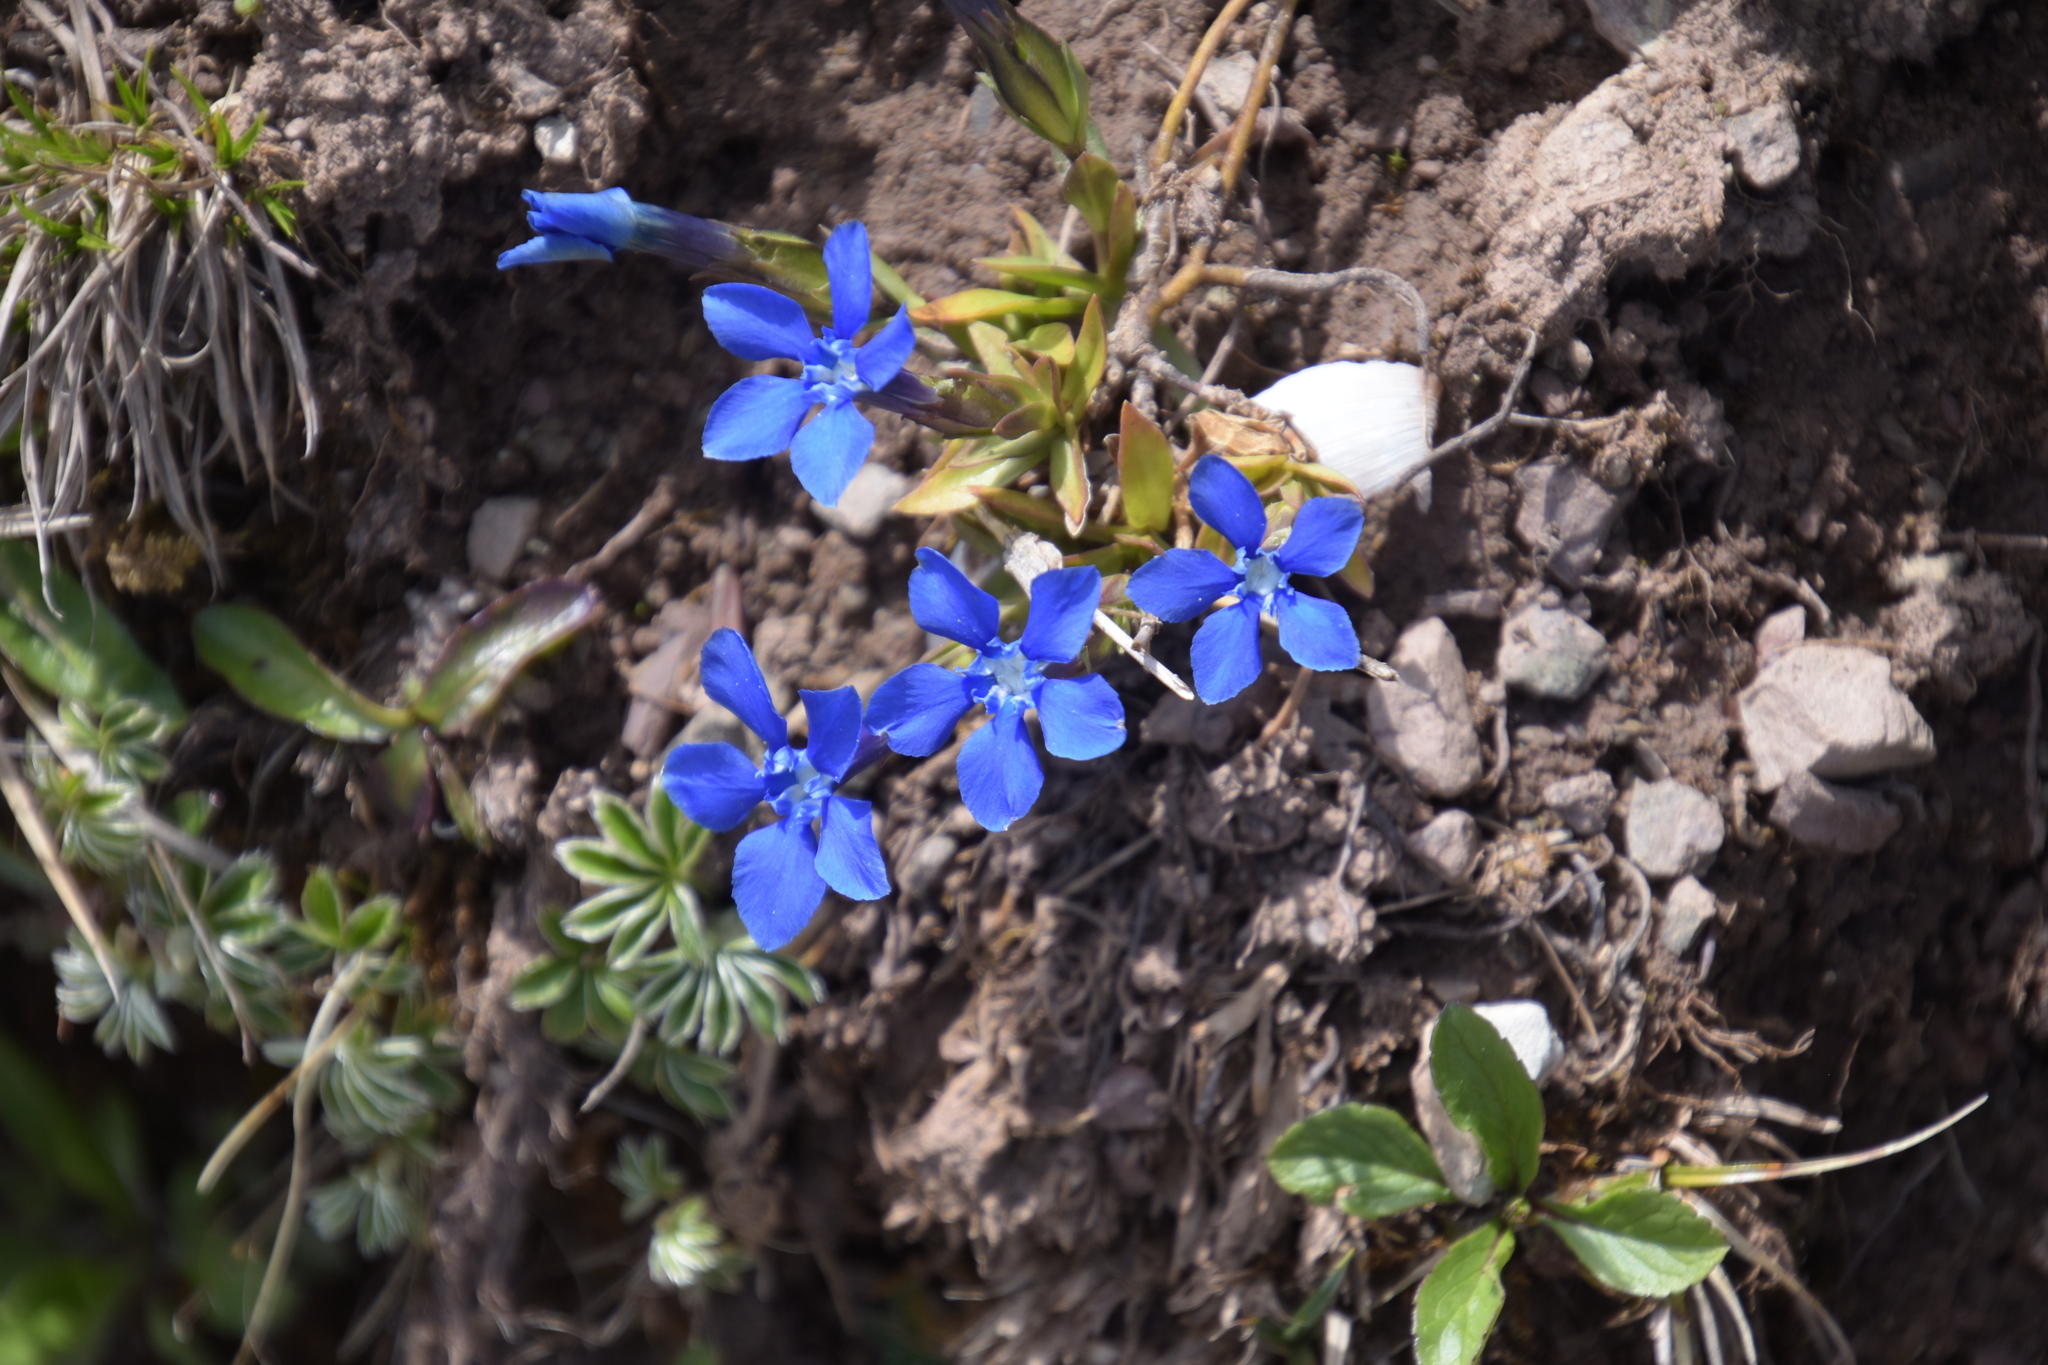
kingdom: Plantae
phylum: Tracheophyta
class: Magnoliopsida
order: Gentianales
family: Gentianaceae
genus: Gentiana
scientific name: Gentiana verna
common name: Spring gentian
